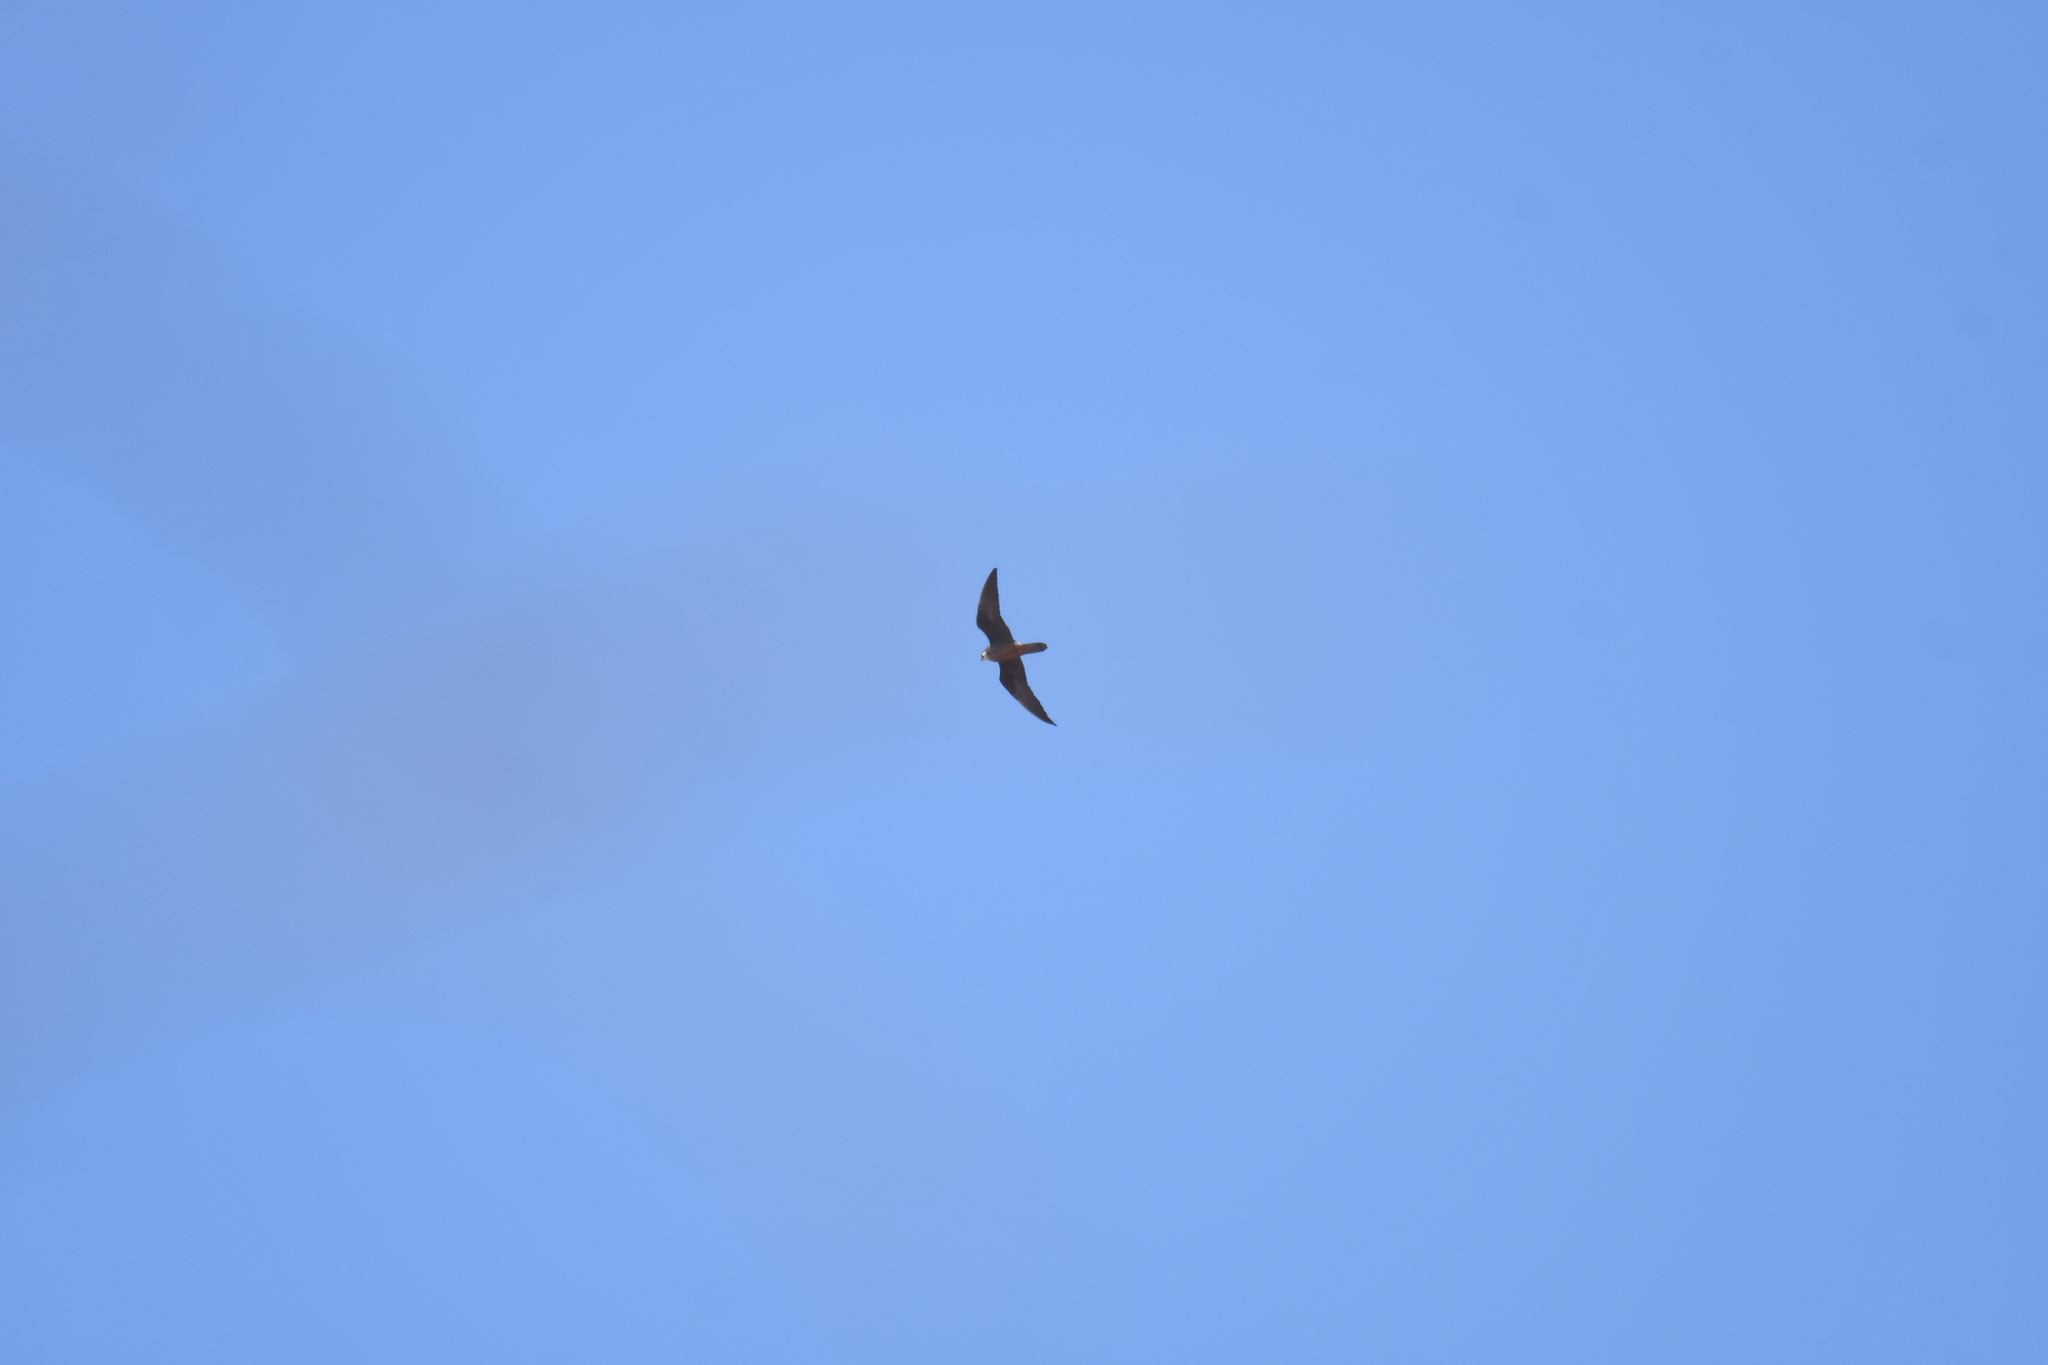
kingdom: Animalia
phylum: Chordata
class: Aves
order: Falconiformes
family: Falconidae
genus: Falco
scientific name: Falco eleonorae
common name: Eleonora's falcon
